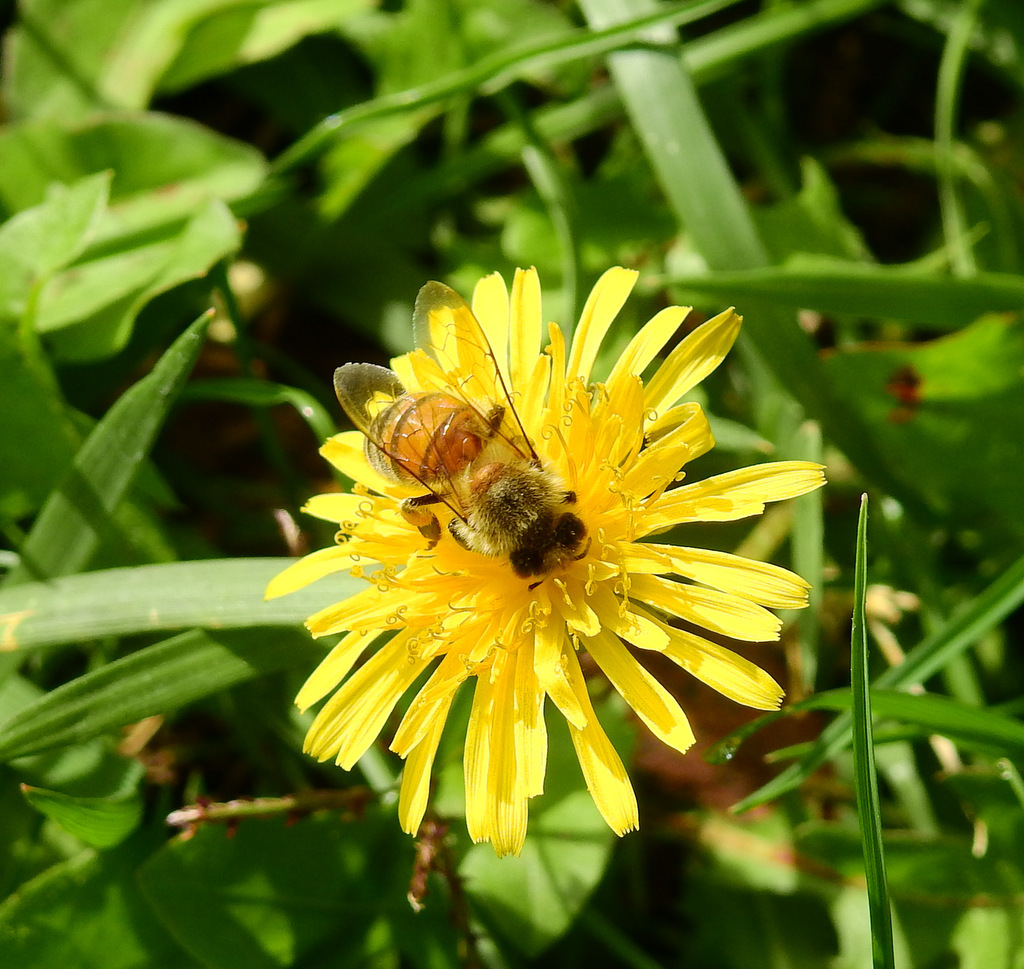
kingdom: Animalia
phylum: Arthropoda
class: Insecta
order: Hymenoptera
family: Apidae
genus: Apis
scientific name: Apis mellifera
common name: Honey bee
